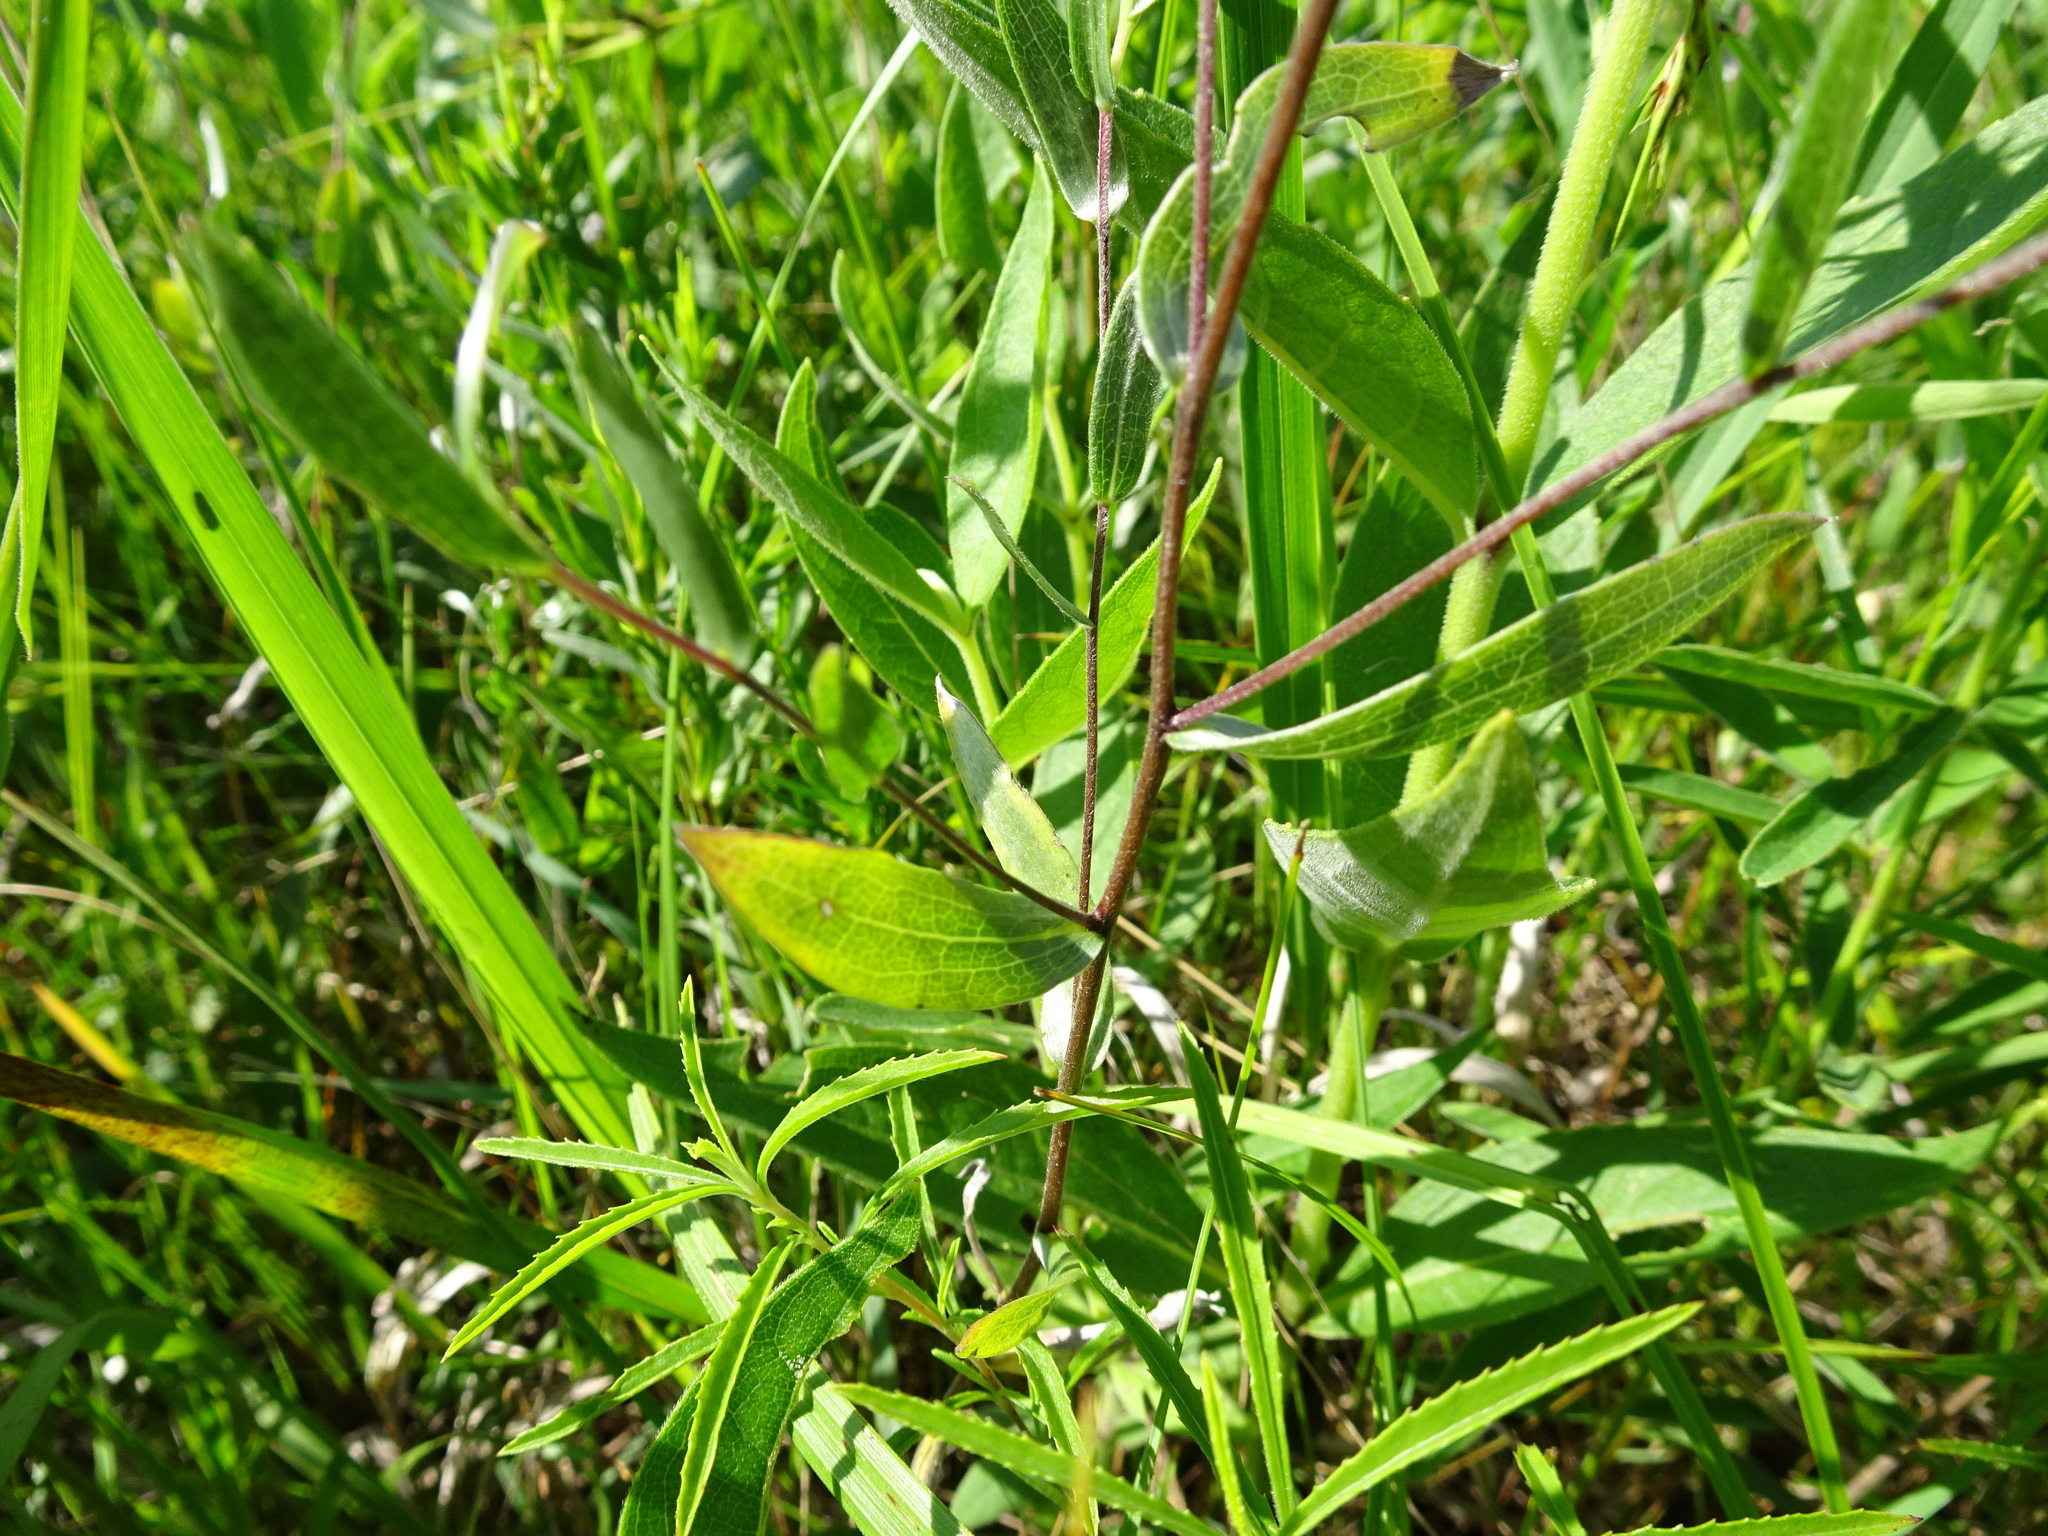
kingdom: Plantae
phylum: Tracheophyta
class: Magnoliopsida
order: Asterales
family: Asteraceae
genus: Symphyotrichum
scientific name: Symphyotrichum sericeum
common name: Silky aster
